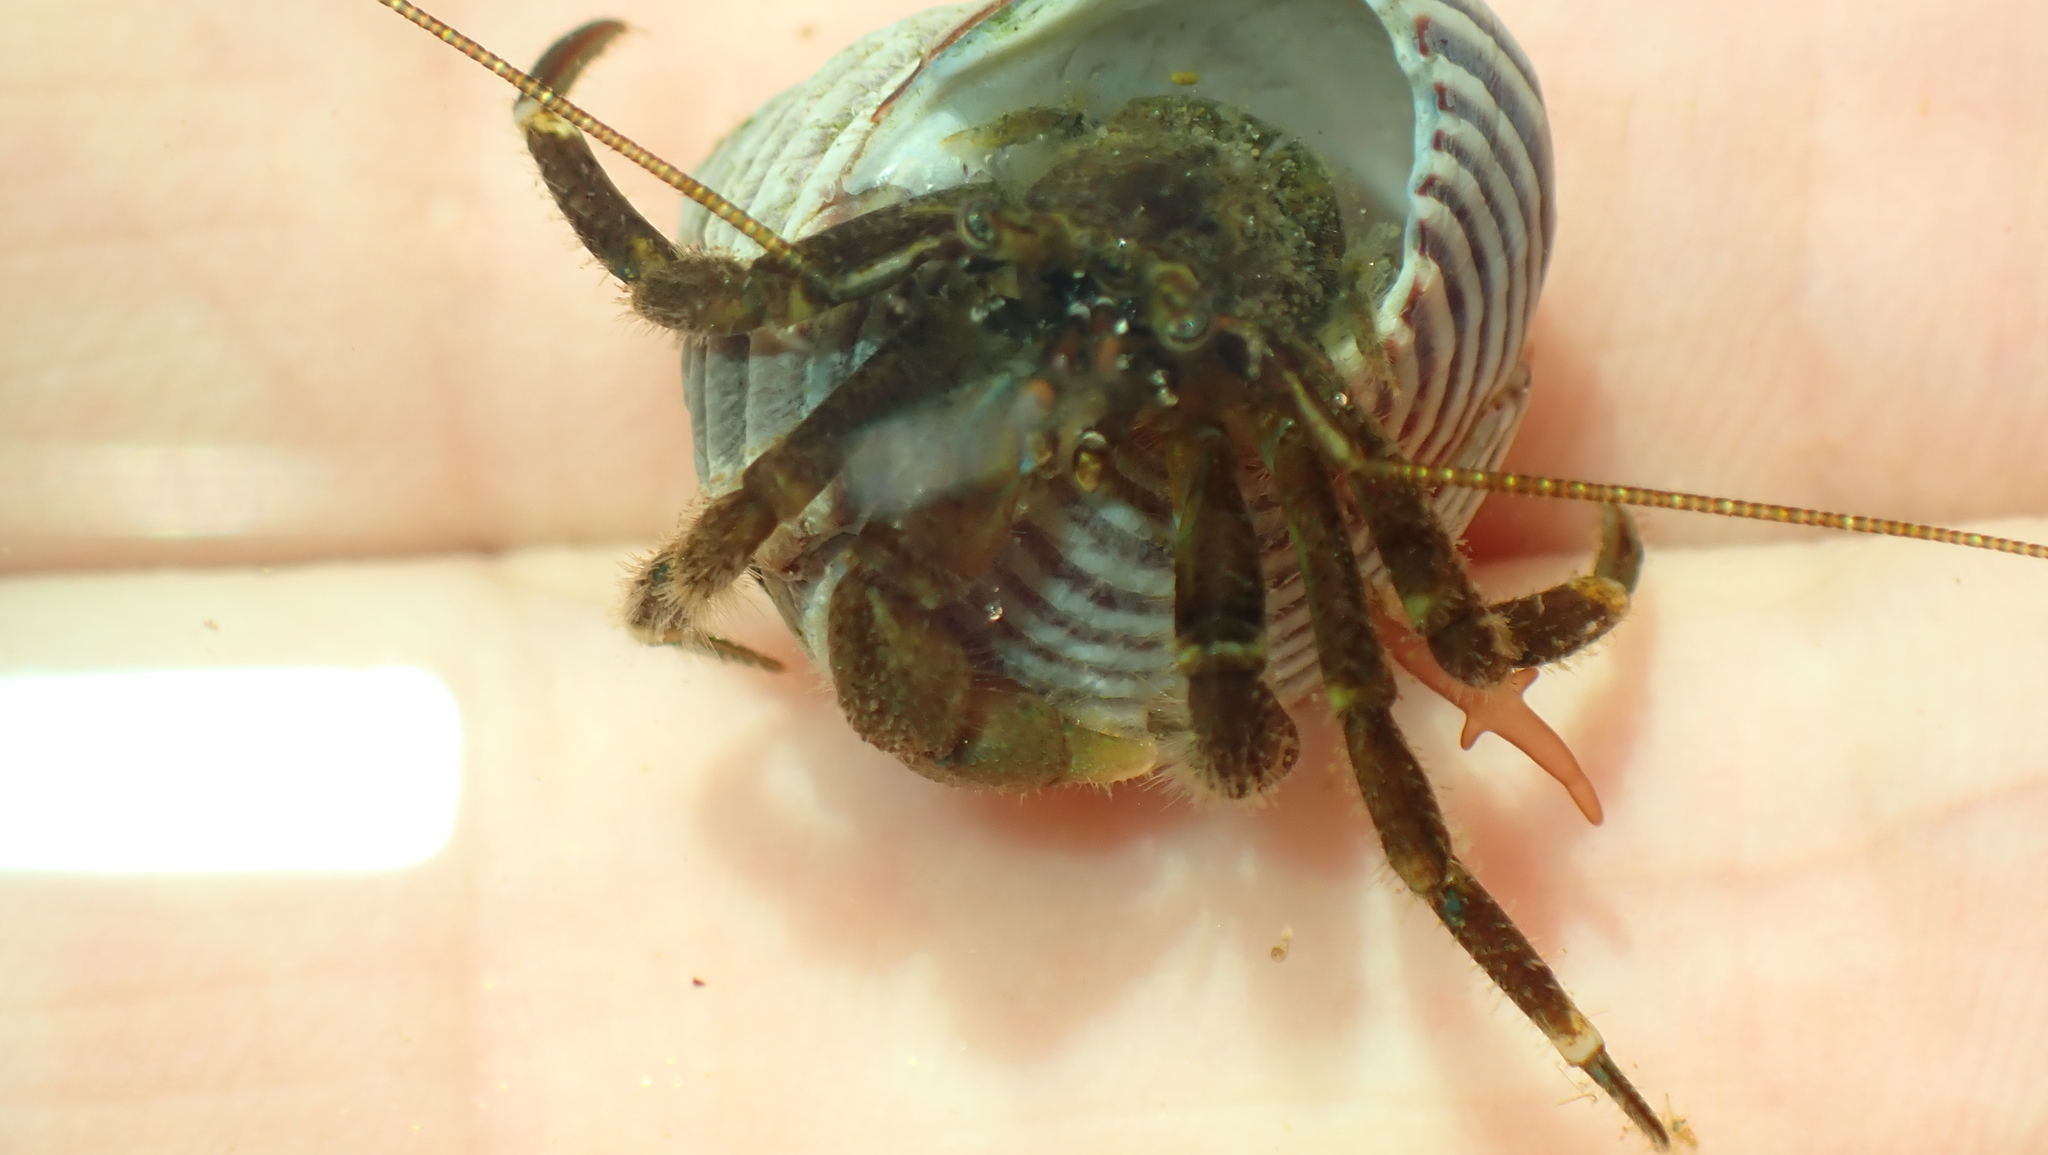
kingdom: Animalia
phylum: Arthropoda
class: Malacostraca
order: Decapoda
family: Paguridae
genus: Pagurus
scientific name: Pagurus hirsutiusculus
